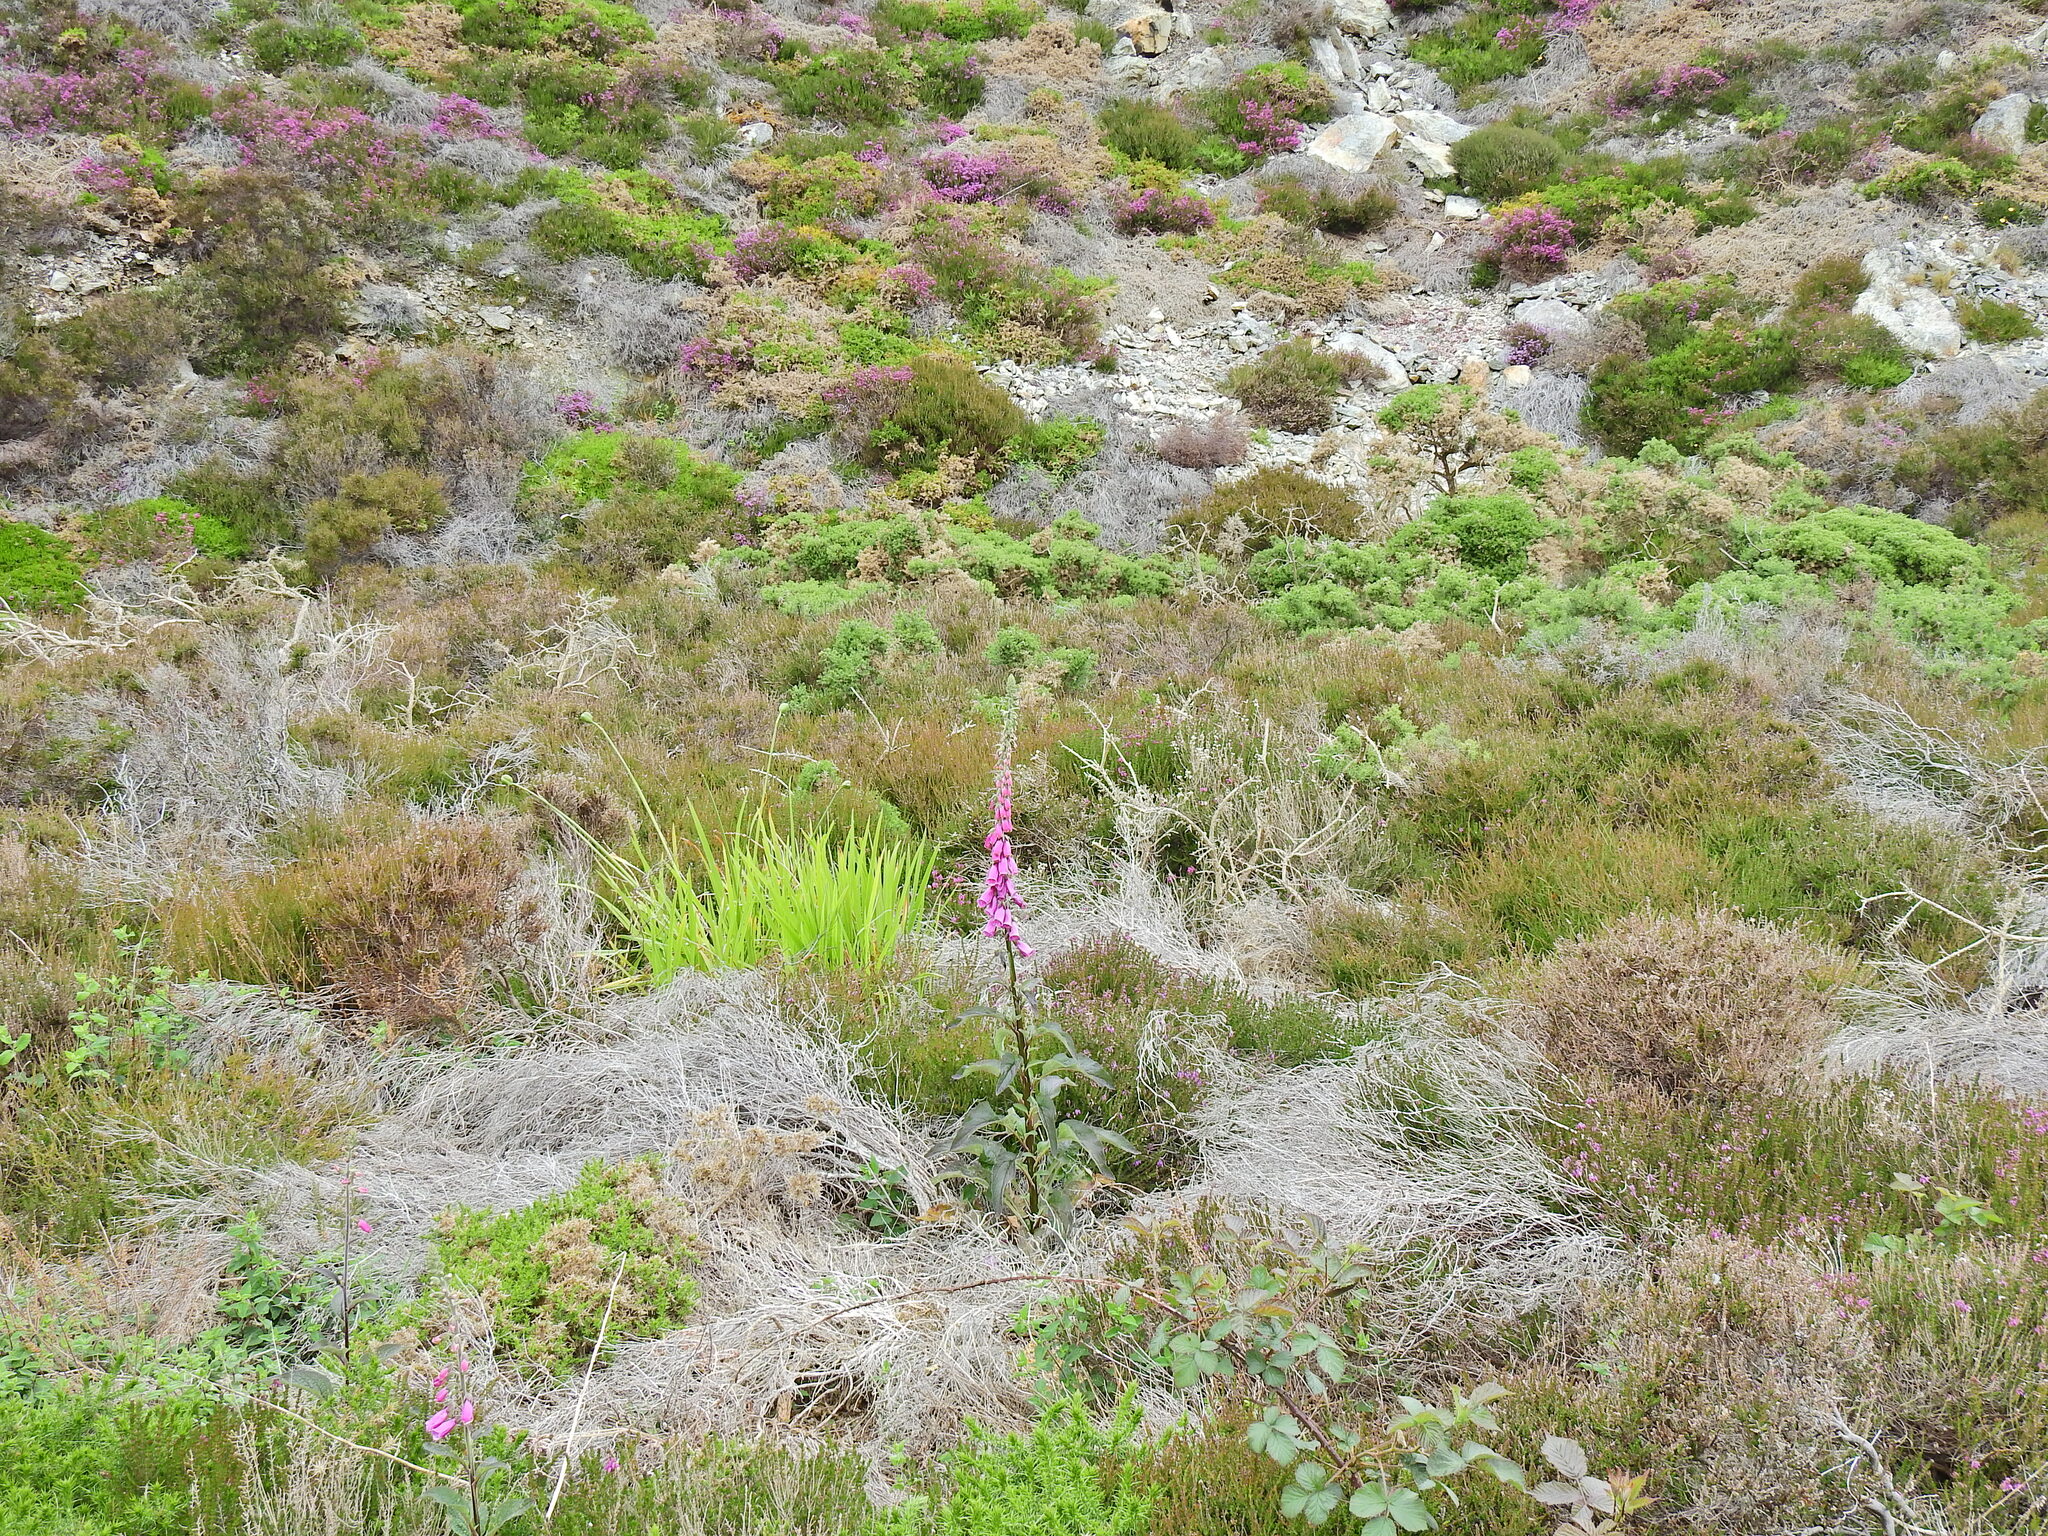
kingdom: Plantae
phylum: Tracheophyta
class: Magnoliopsida
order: Lamiales
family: Plantaginaceae
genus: Digitalis
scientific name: Digitalis purpurea
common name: Foxglove
